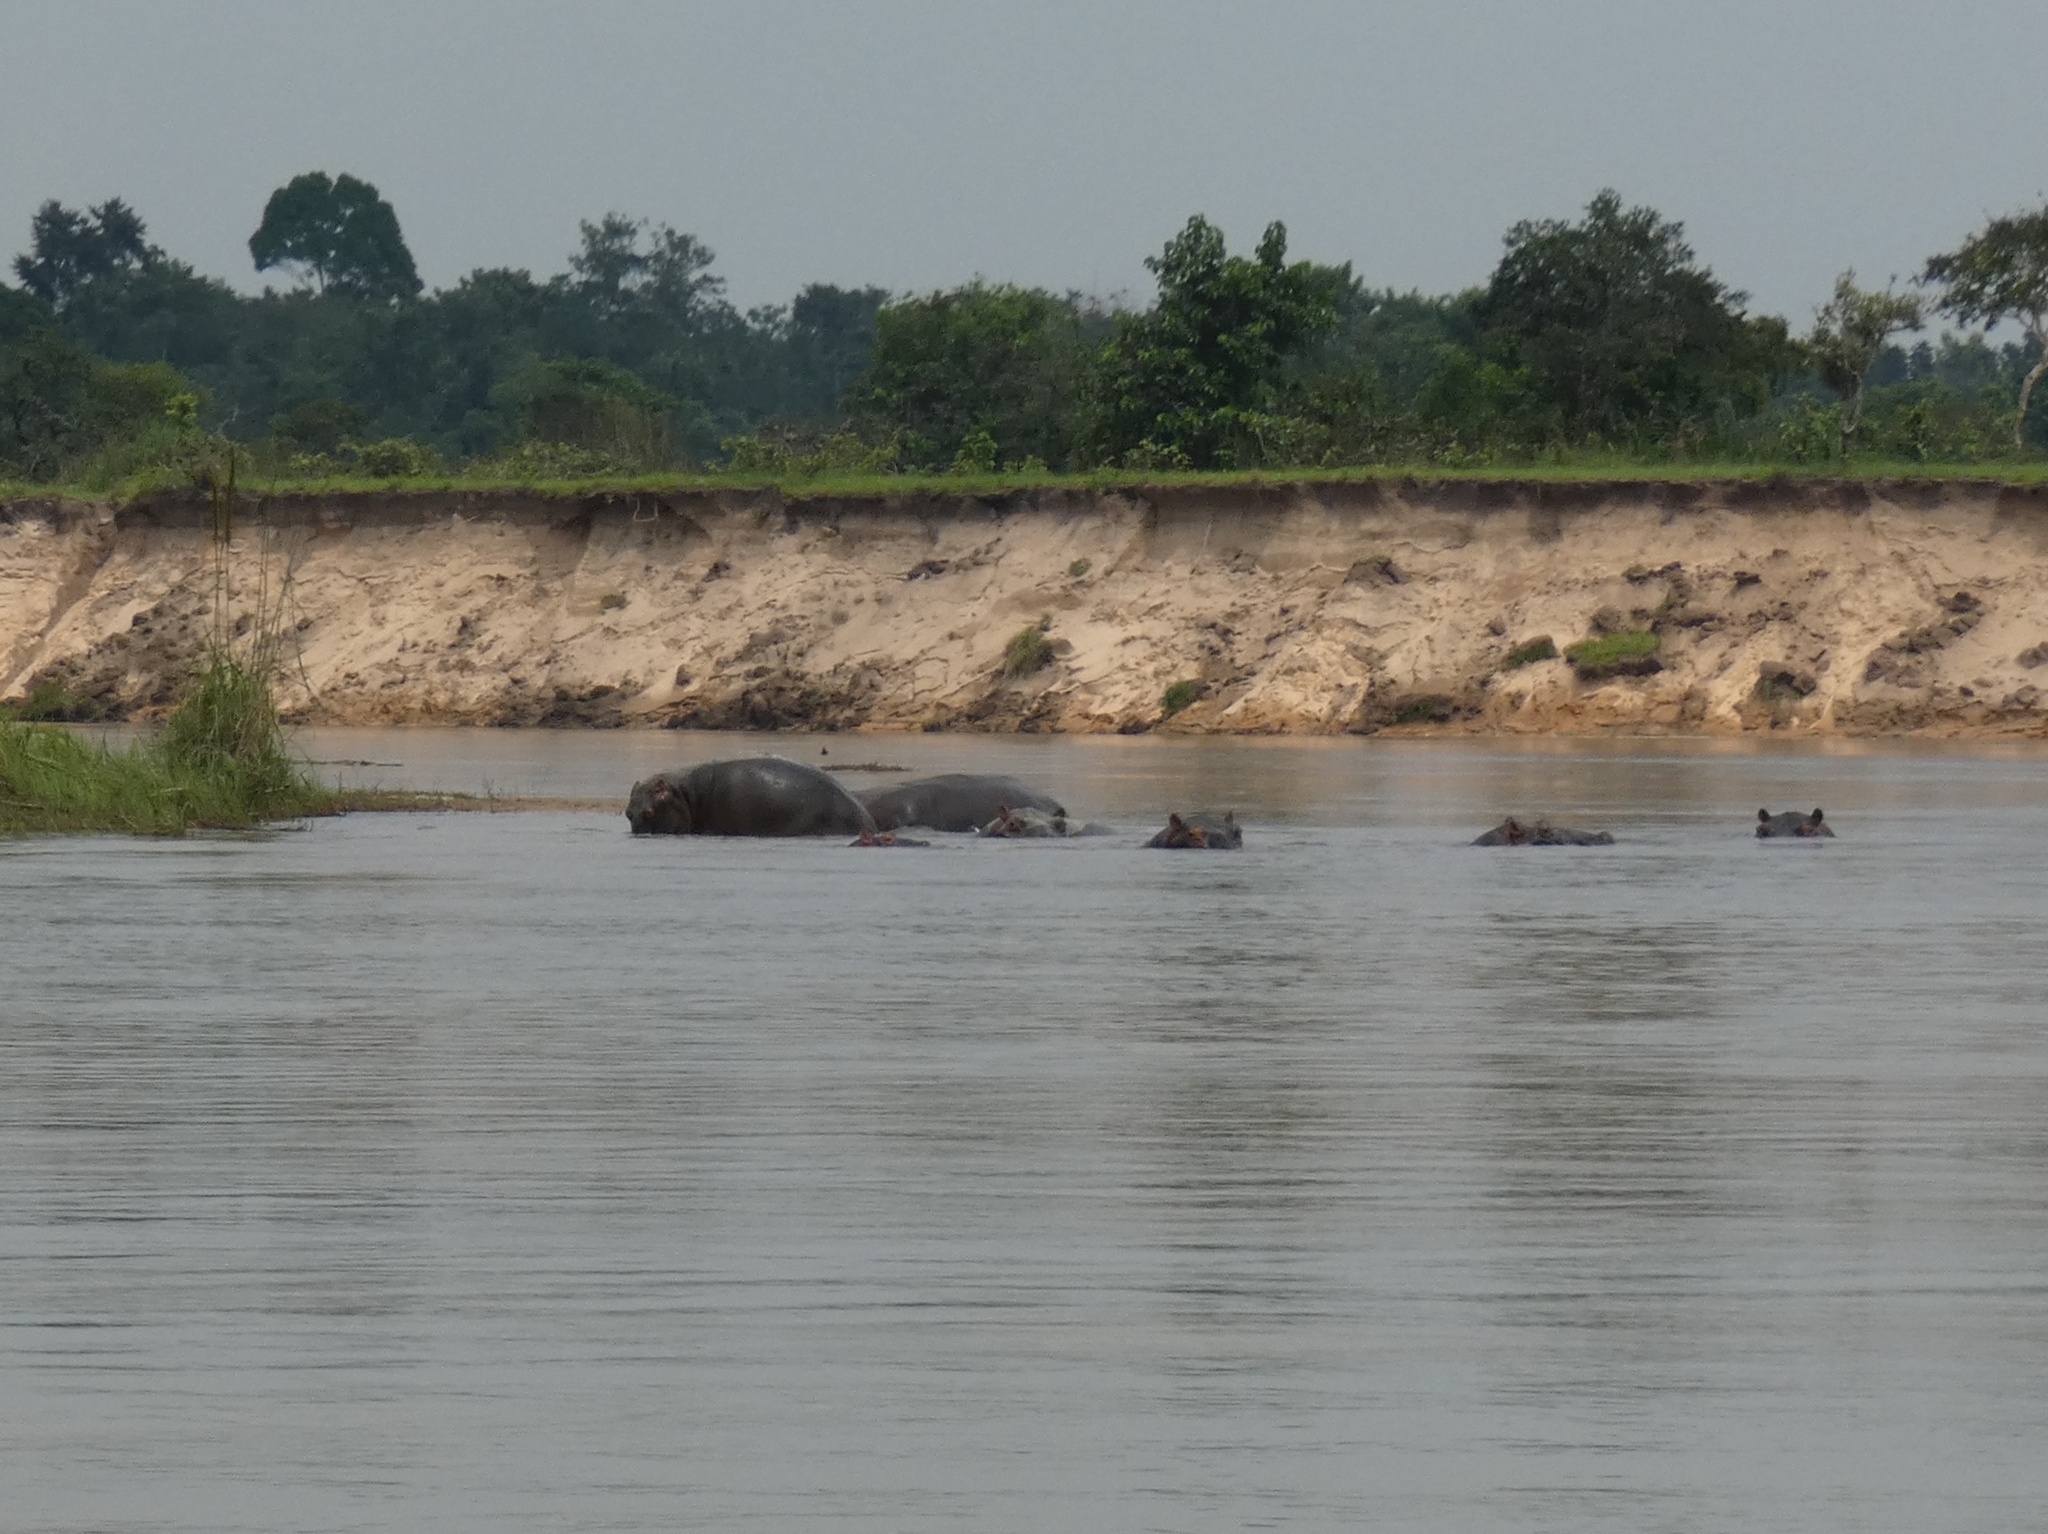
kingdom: Animalia
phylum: Chordata
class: Mammalia
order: Artiodactyla
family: Hippopotamidae
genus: Hippopotamus
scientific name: Hippopotamus amphibius
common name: Common hippopotamus
